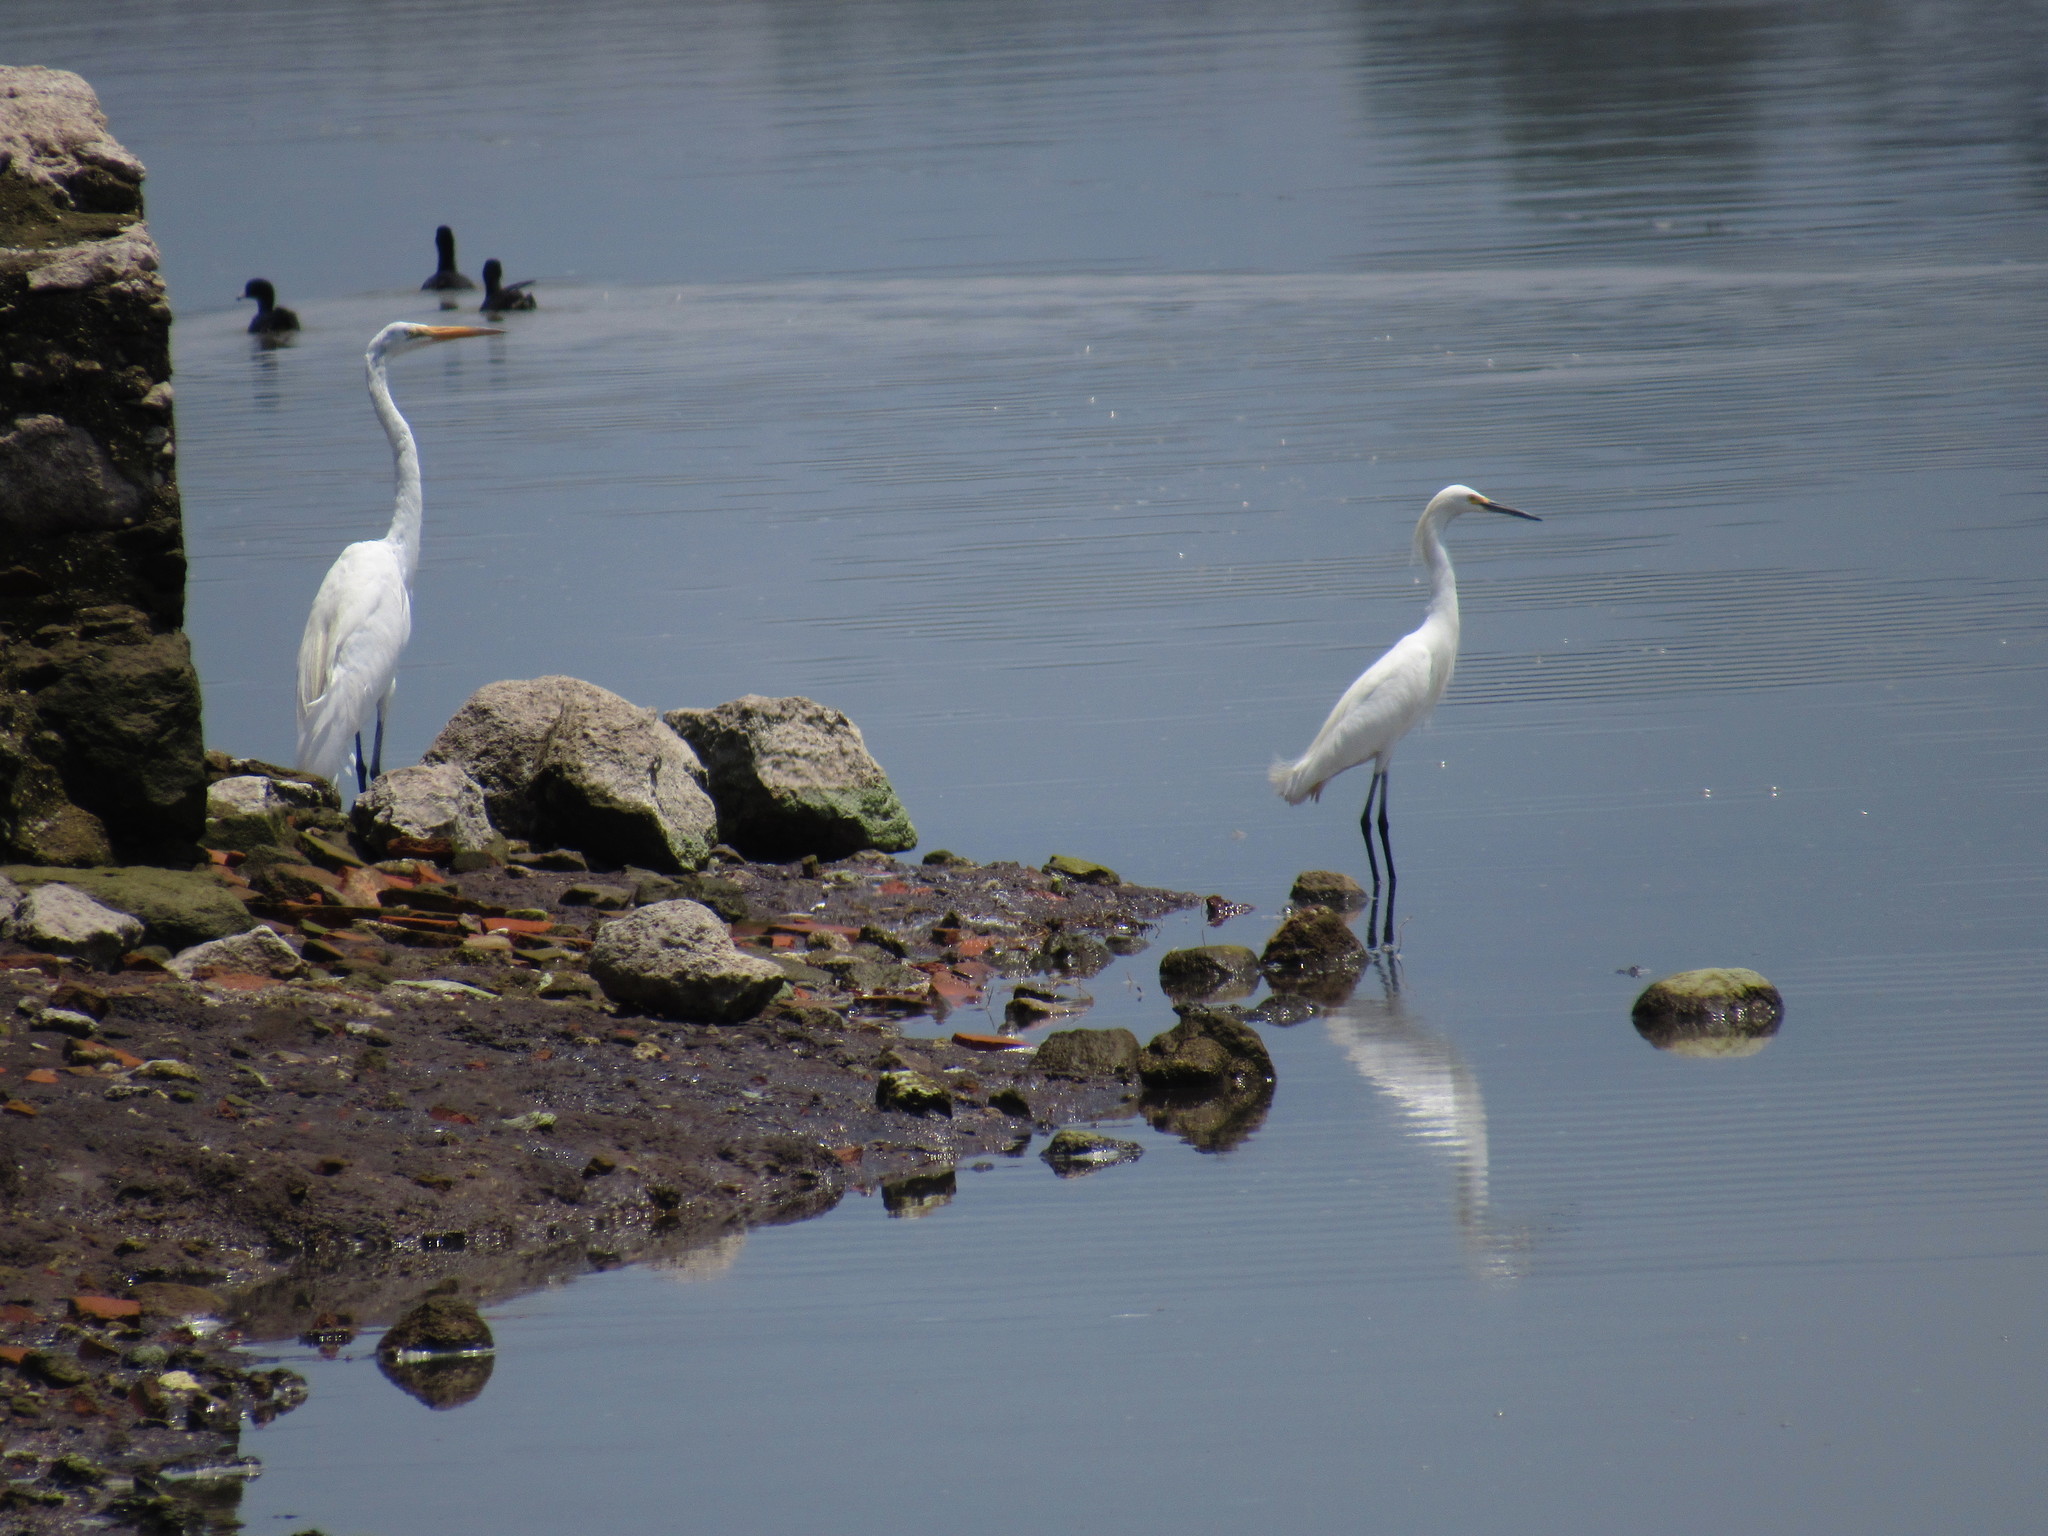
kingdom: Animalia
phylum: Chordata
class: Aves
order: Pelecaniformes
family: Ardeidae
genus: Ardea
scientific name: Ardea alba
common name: Great egret
